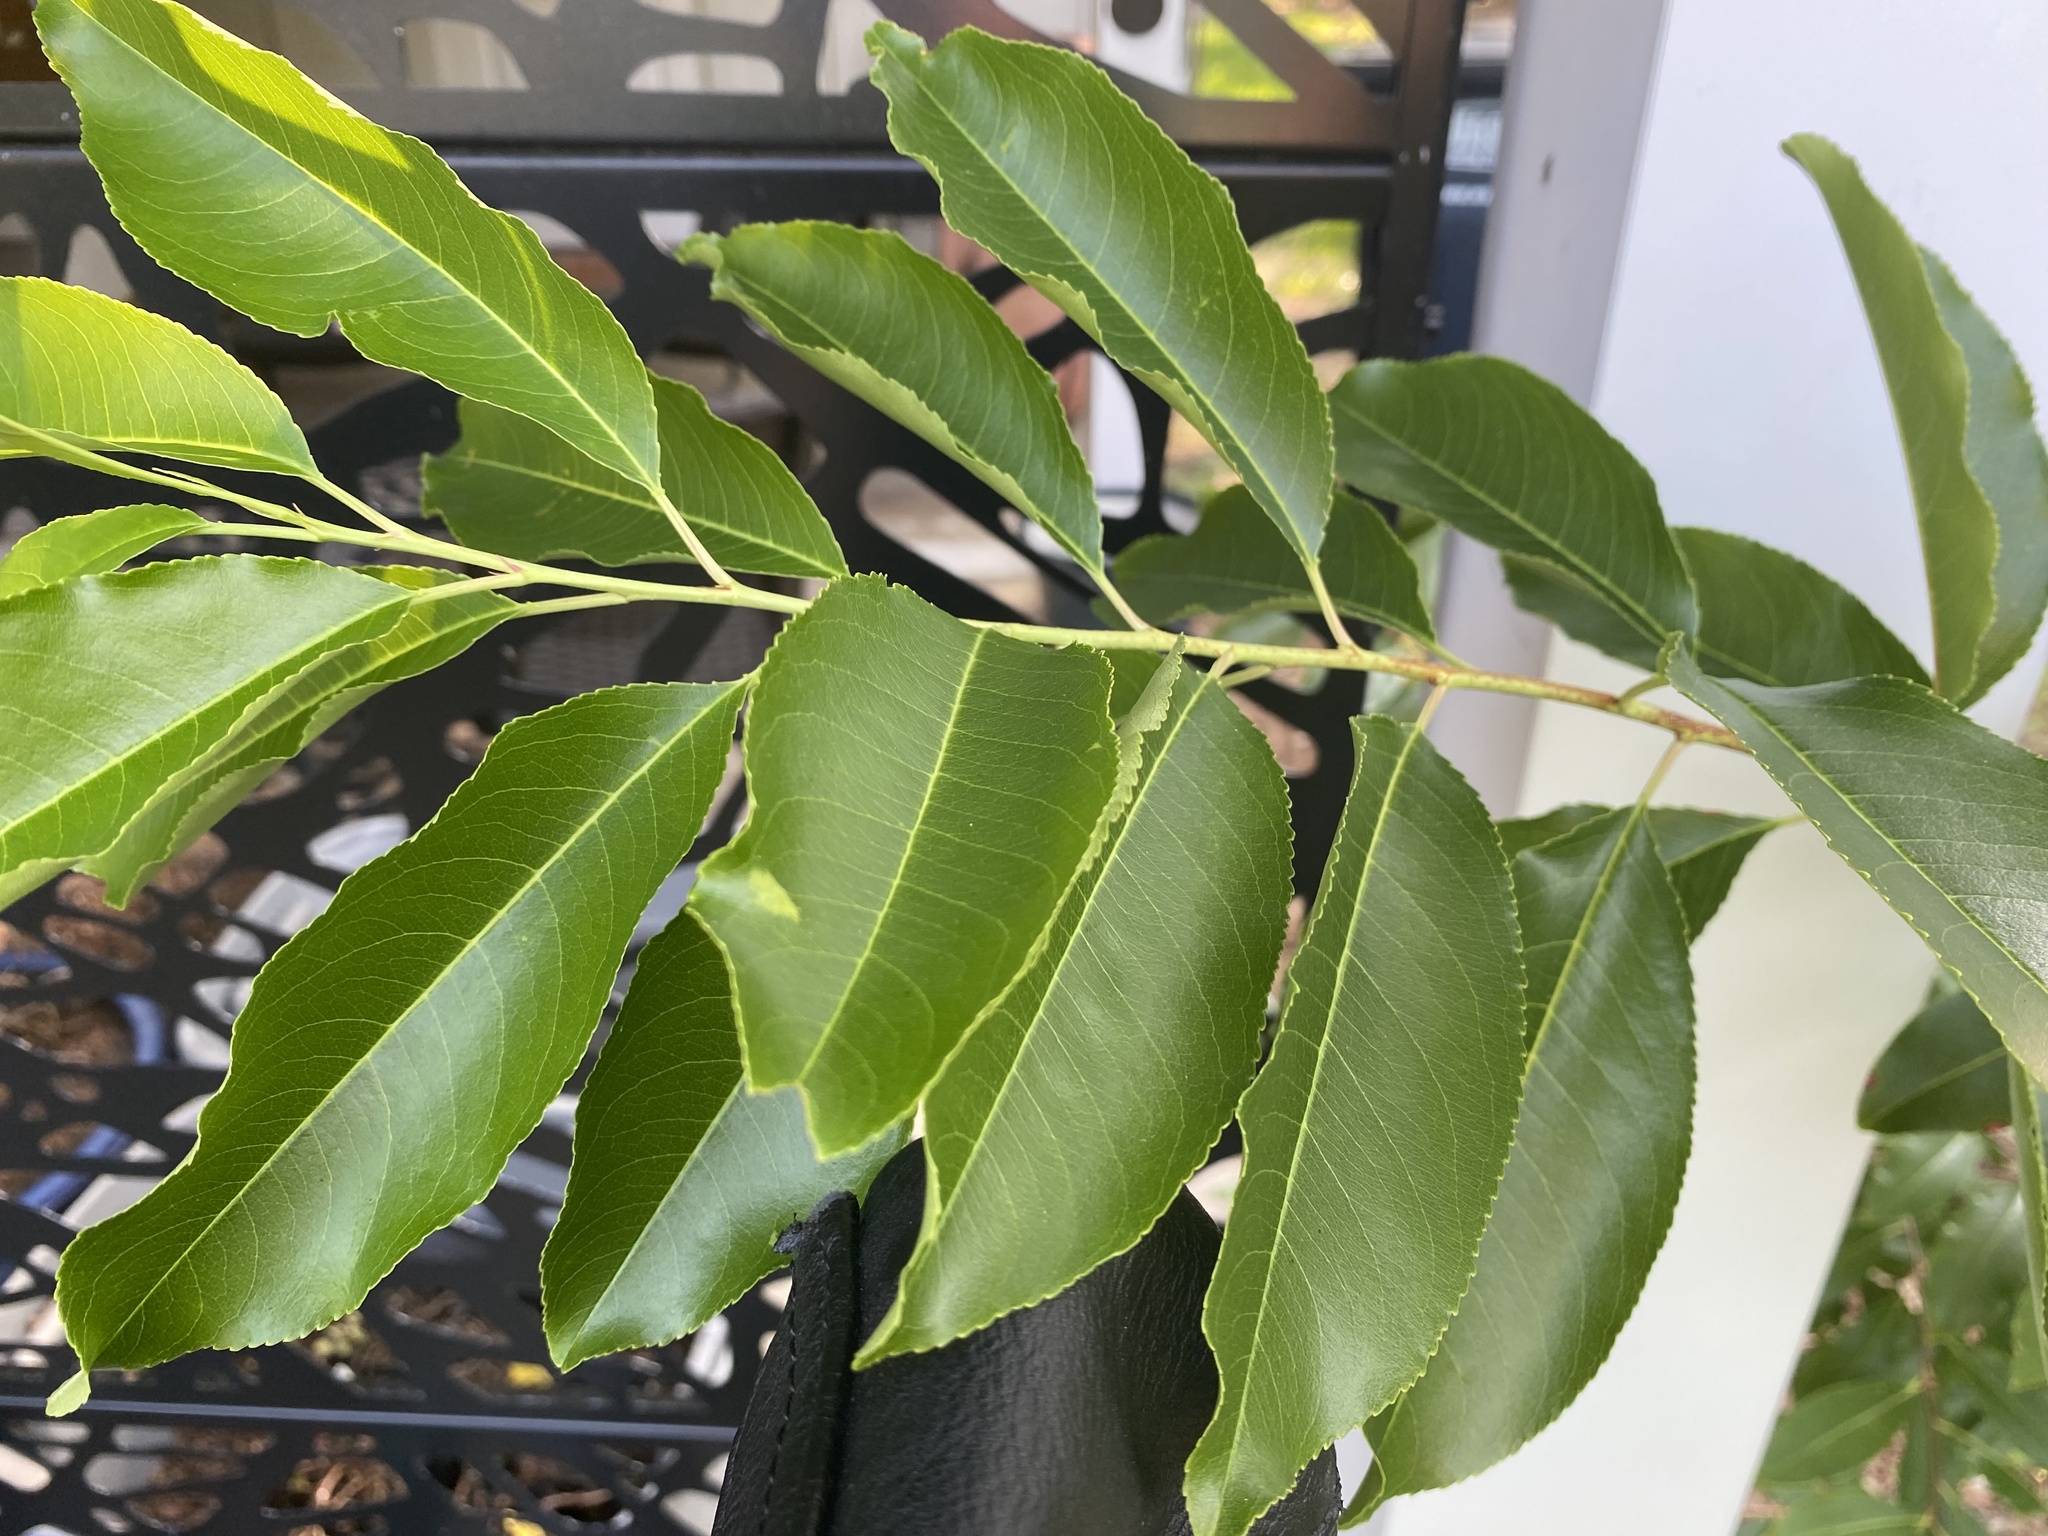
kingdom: Plantae
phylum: Tracheophyta
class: Magnoliopsida
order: Rosales
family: Rosaceae
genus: Prunus
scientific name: Prunus serotina
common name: Black cherry
